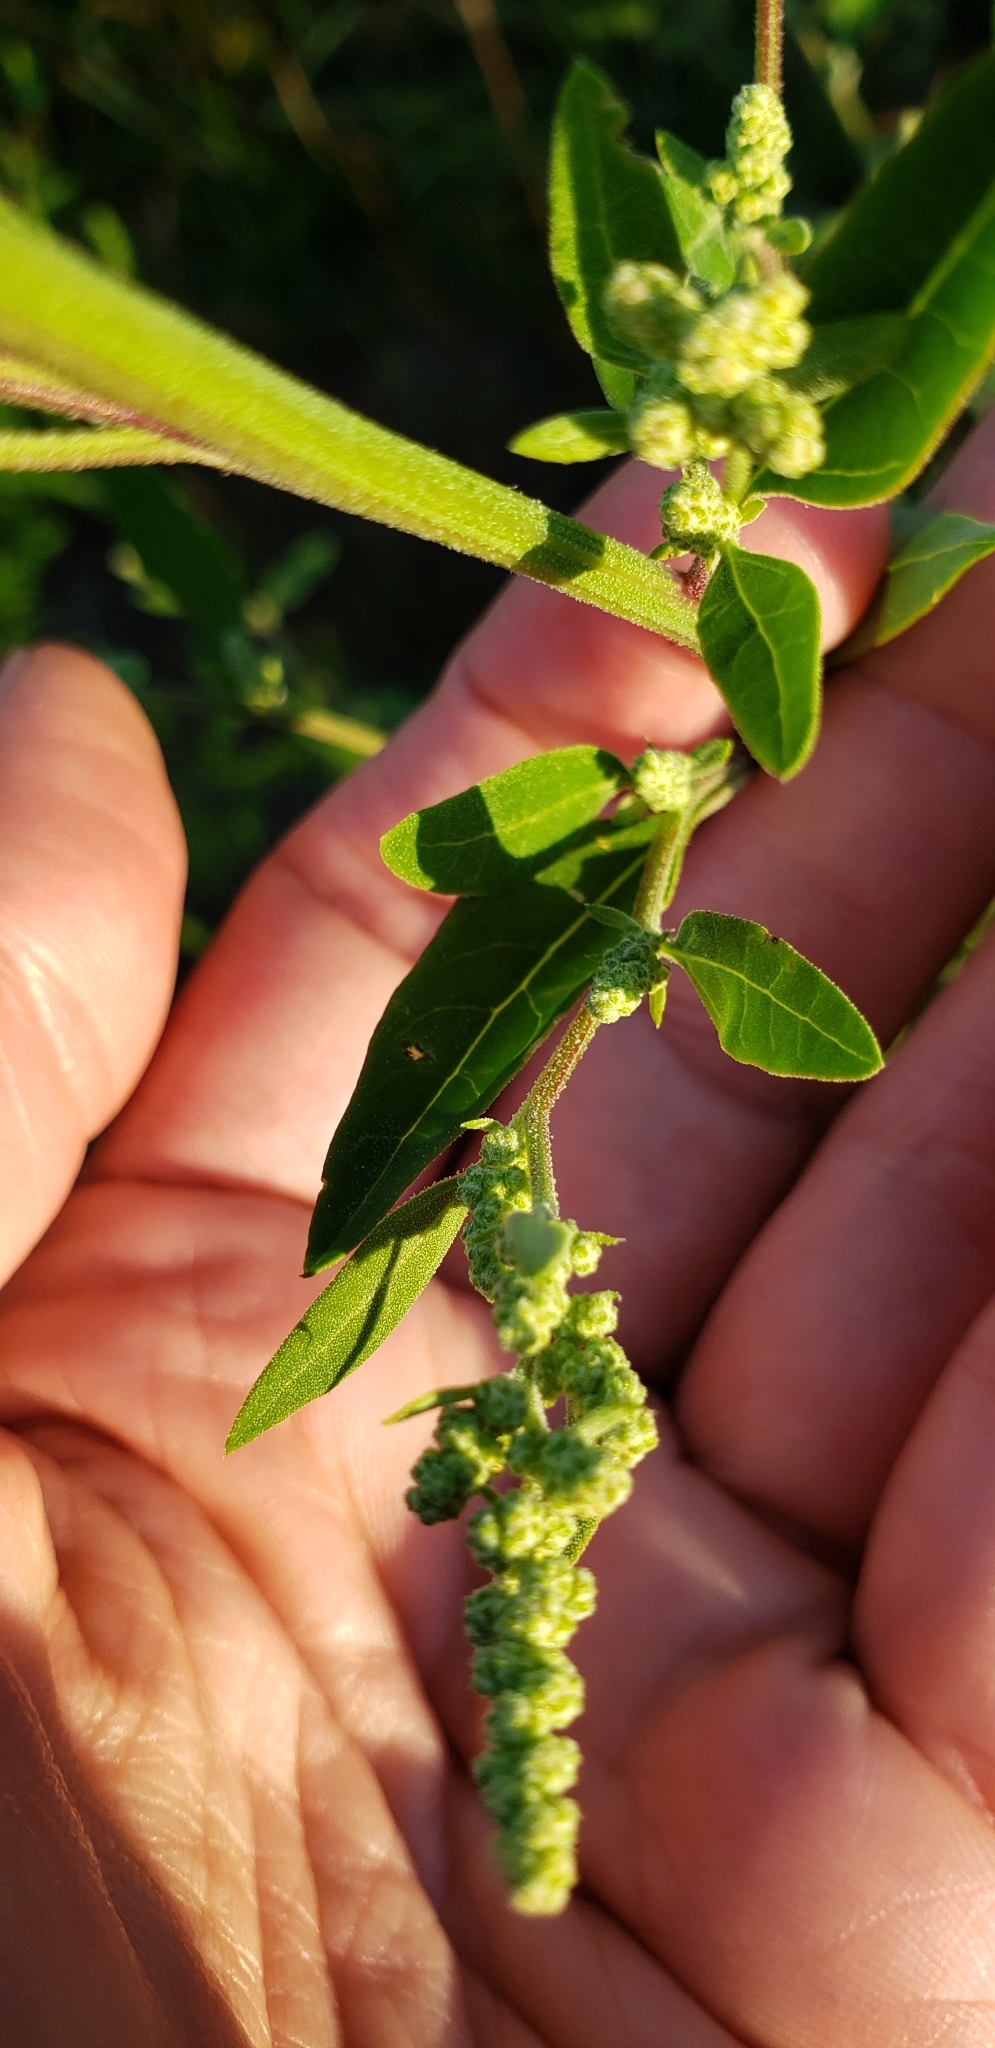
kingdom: Plantae
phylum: Tracheophyta
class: Magnoliopsida
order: Caryophyllales
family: Amaranthaceae
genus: Chenopodium
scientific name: Chenopodium album
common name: Fat-hen
